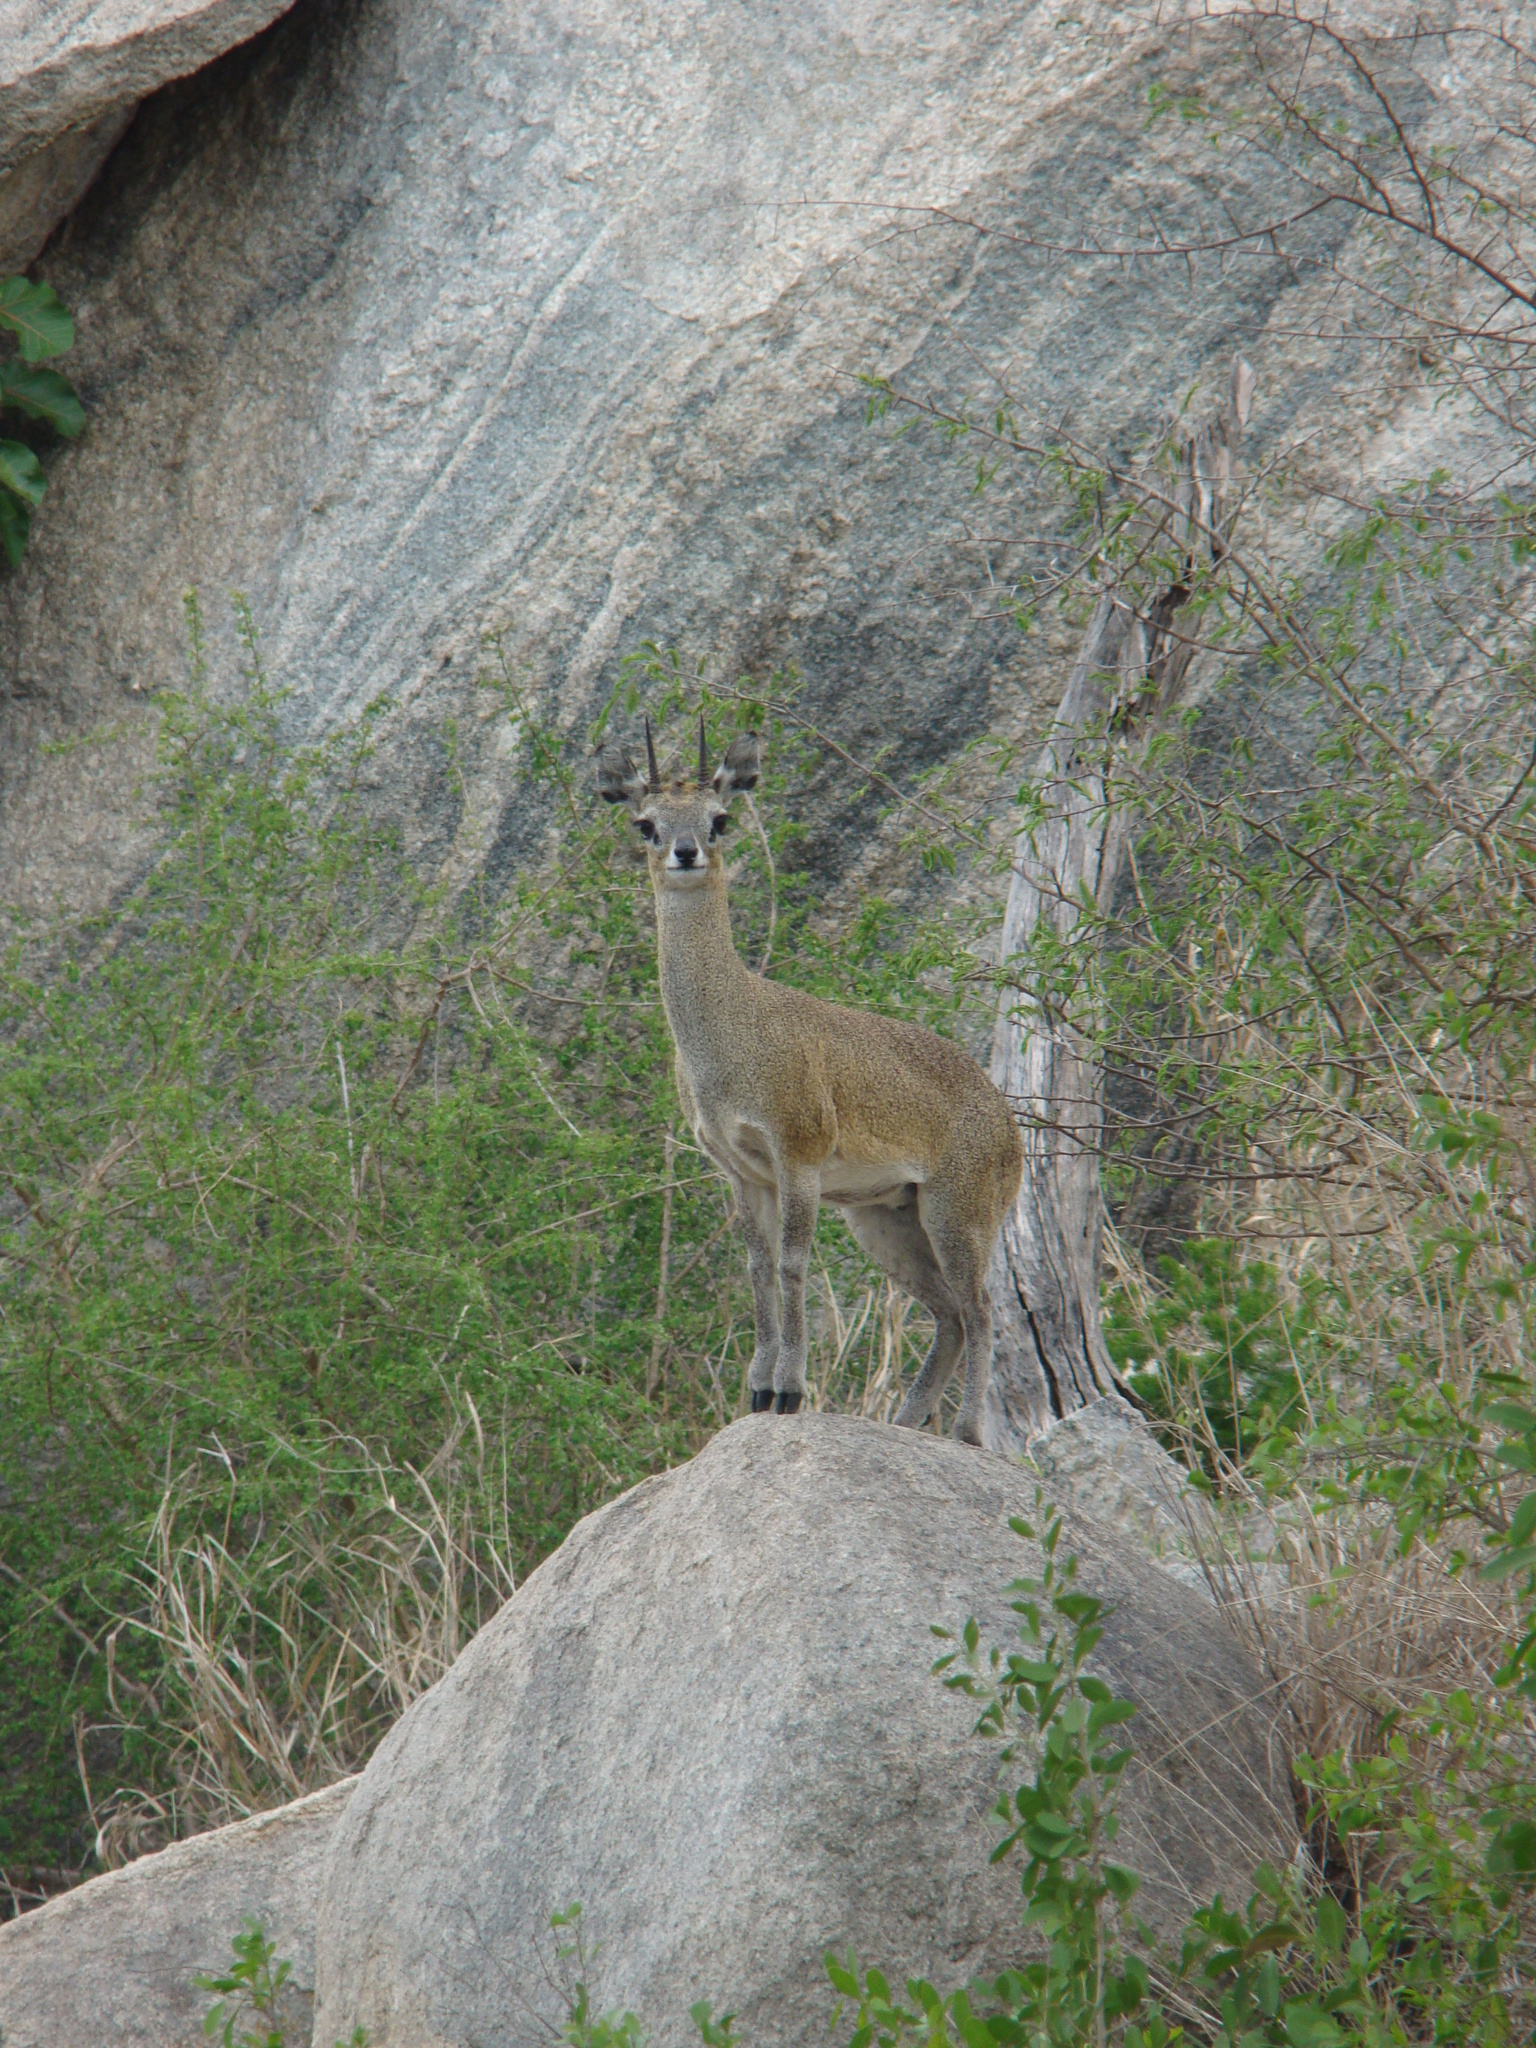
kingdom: Animalia
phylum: Chordata
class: Mammalia
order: Artiodactyla
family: Bovidae
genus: Oreotragus
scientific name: Oreotragus oreotragus
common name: Klipspringer
